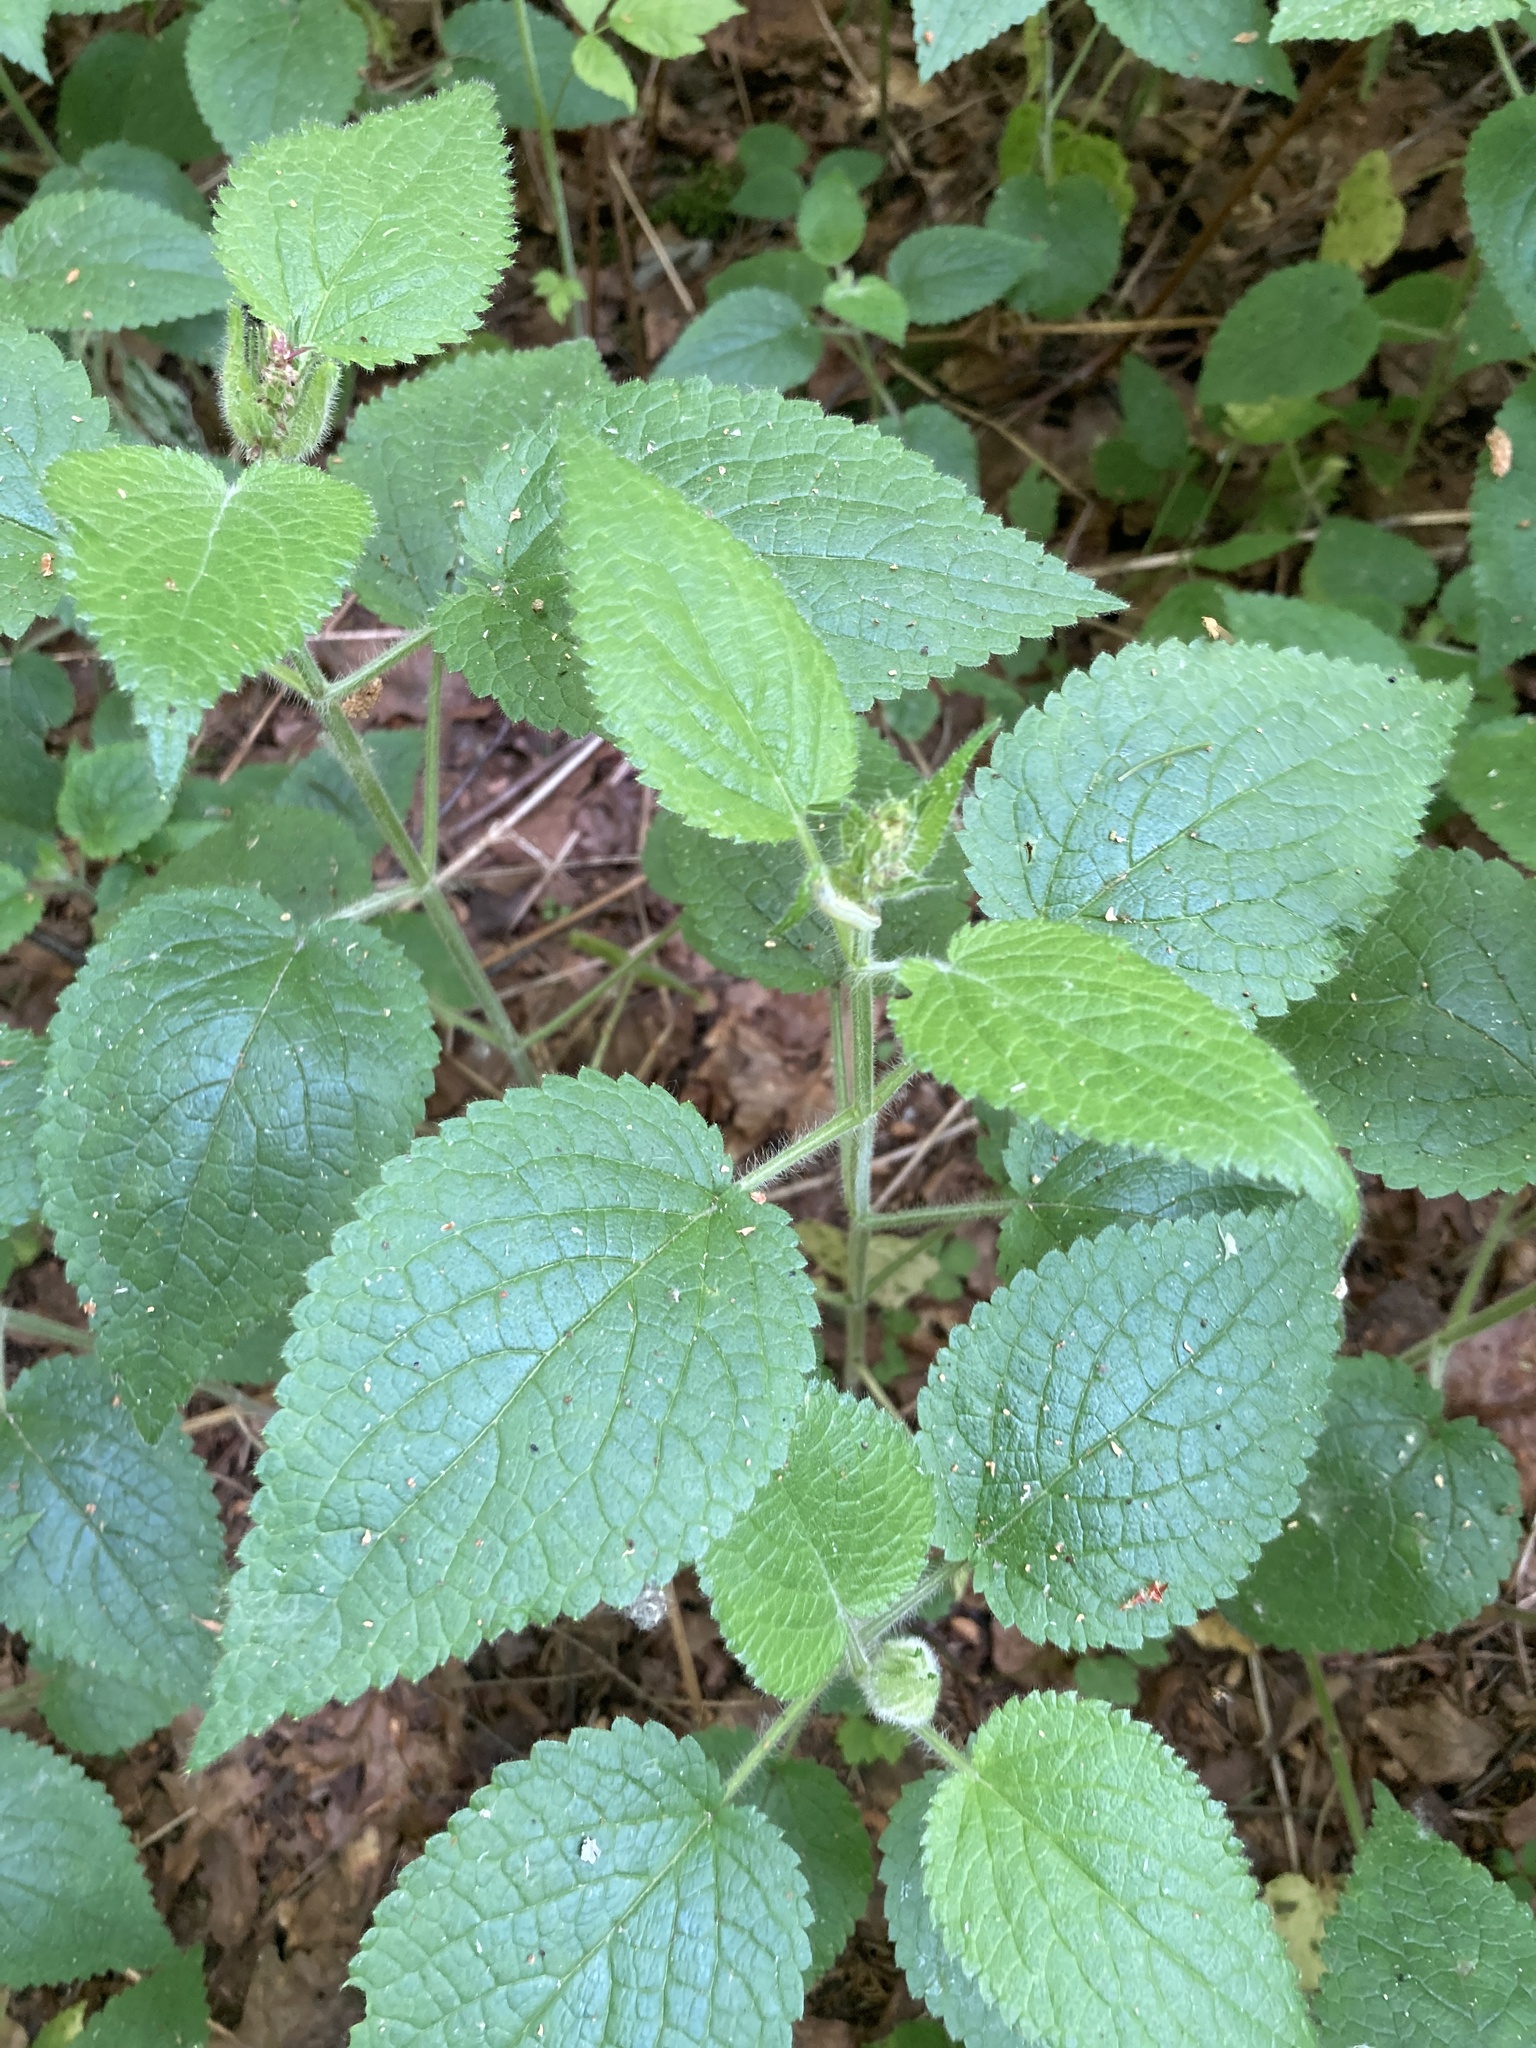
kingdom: Plantae
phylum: Tracheophyta
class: Magnoliopsida
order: Lamiales
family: Lamiaceae
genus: Stachys
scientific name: Stachys sylvatica
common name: Hedge woundwort
